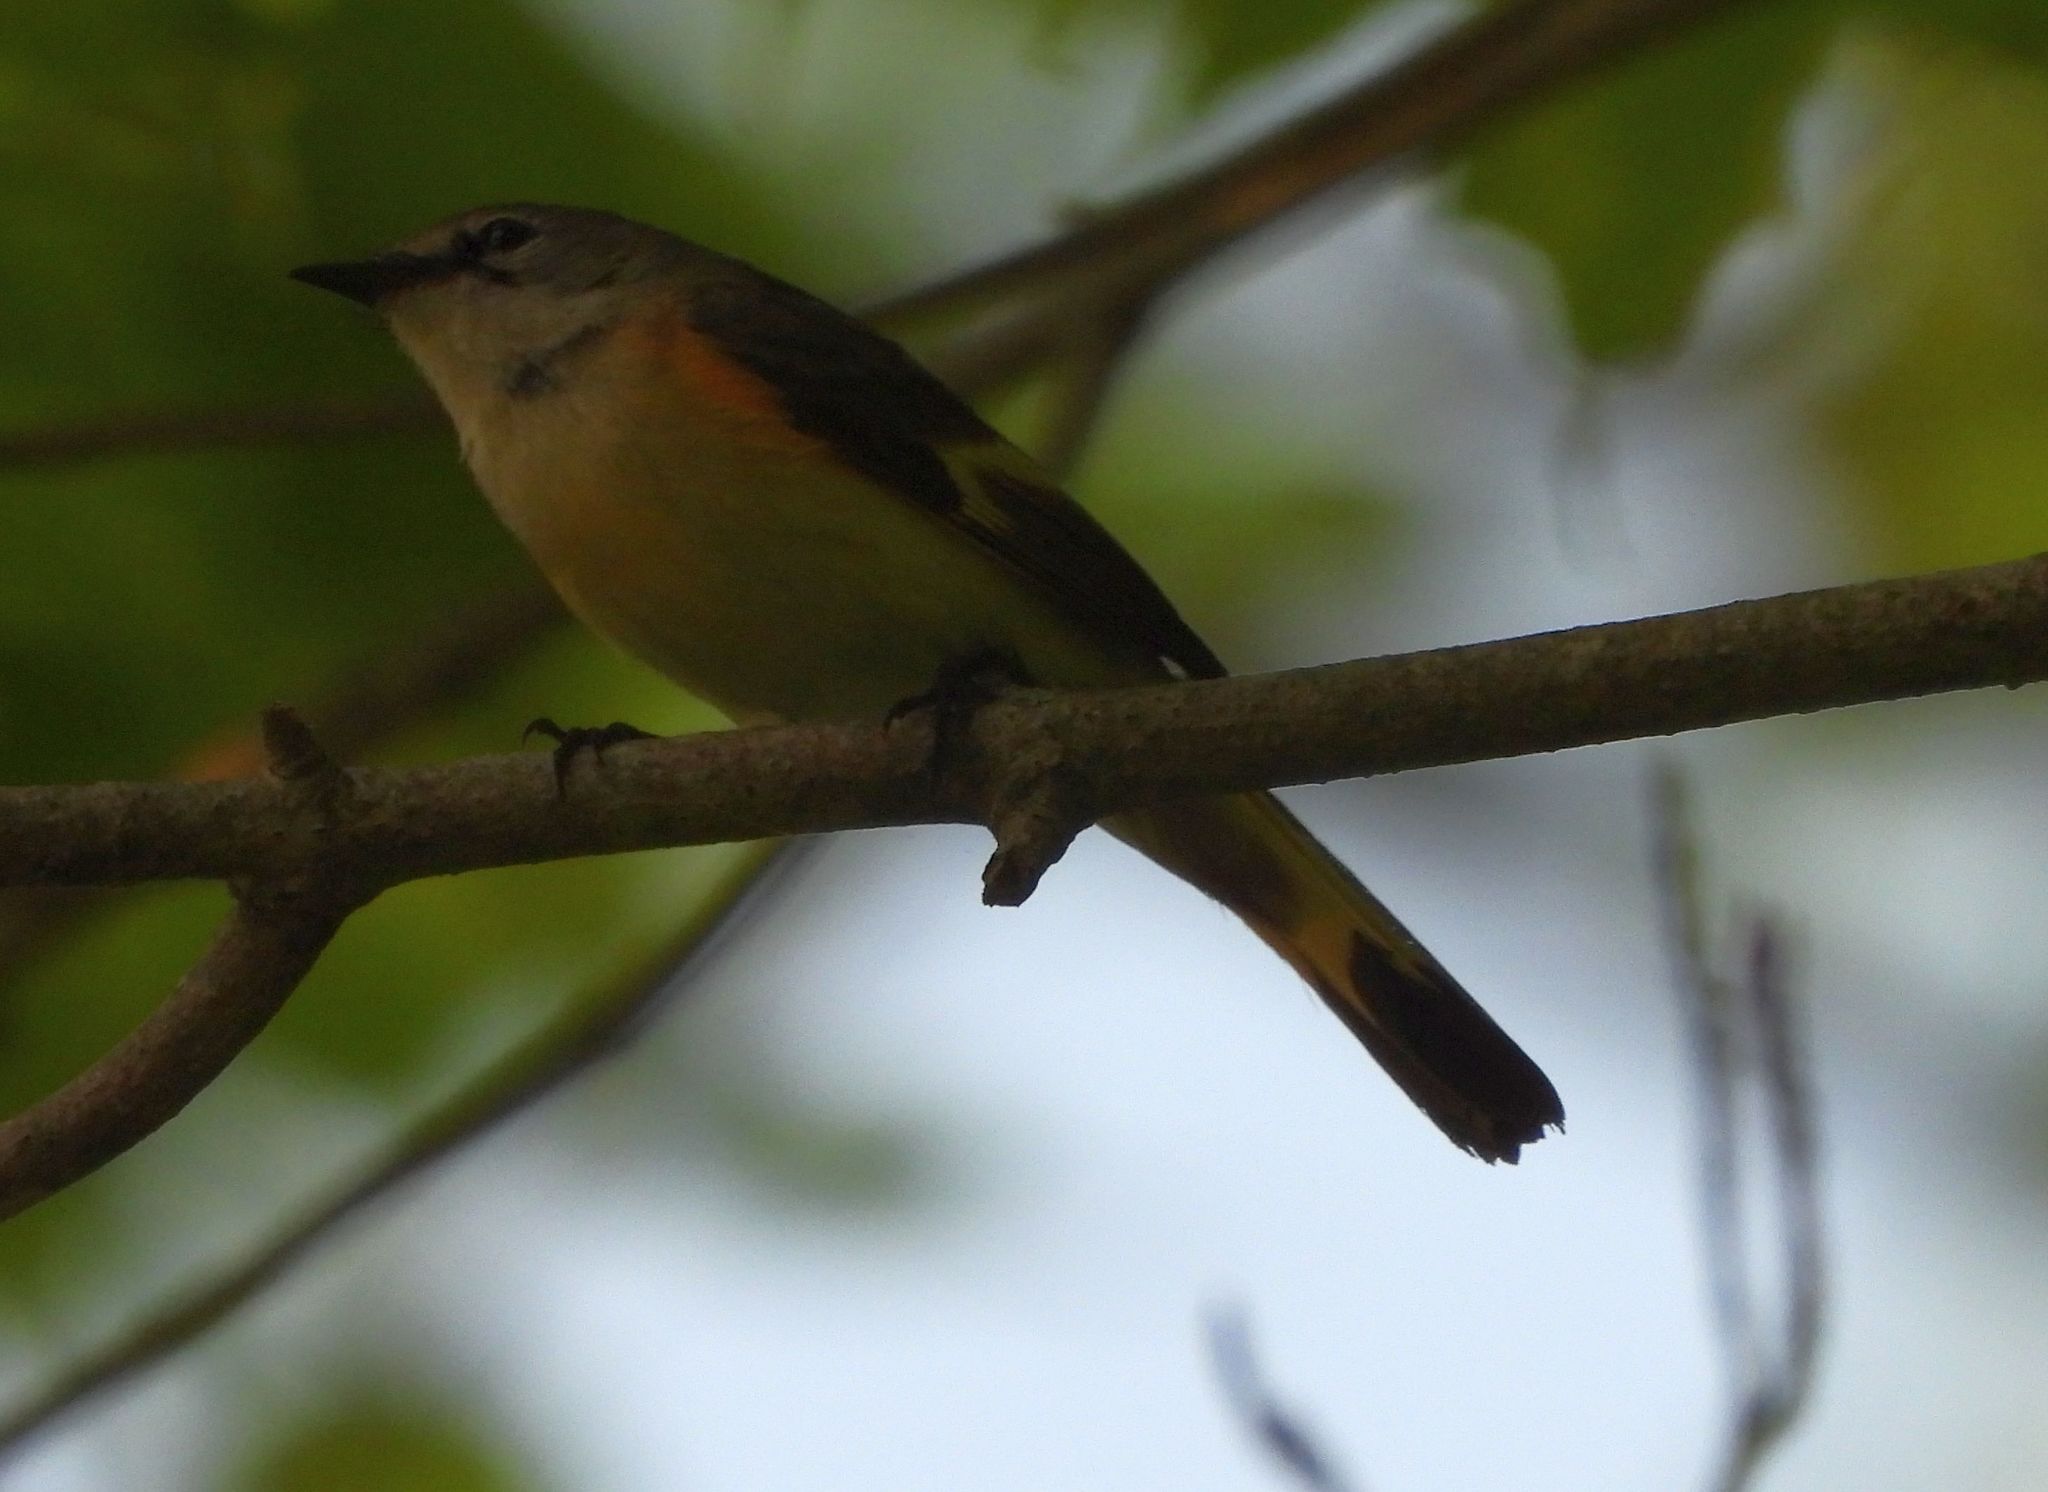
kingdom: Animalia
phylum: Chordata
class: Aves
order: Passeriformes
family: Parulidae
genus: Setophaga
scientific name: Setophaga ruticilla
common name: American redstart
